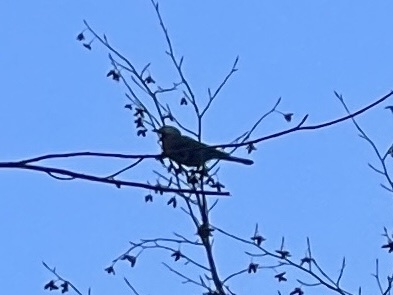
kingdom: Animalia
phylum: Chordata
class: Aves
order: Passeriformes
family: Corvidae
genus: Garrulus
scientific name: Garrulus glandarius
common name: Eurasian jay
